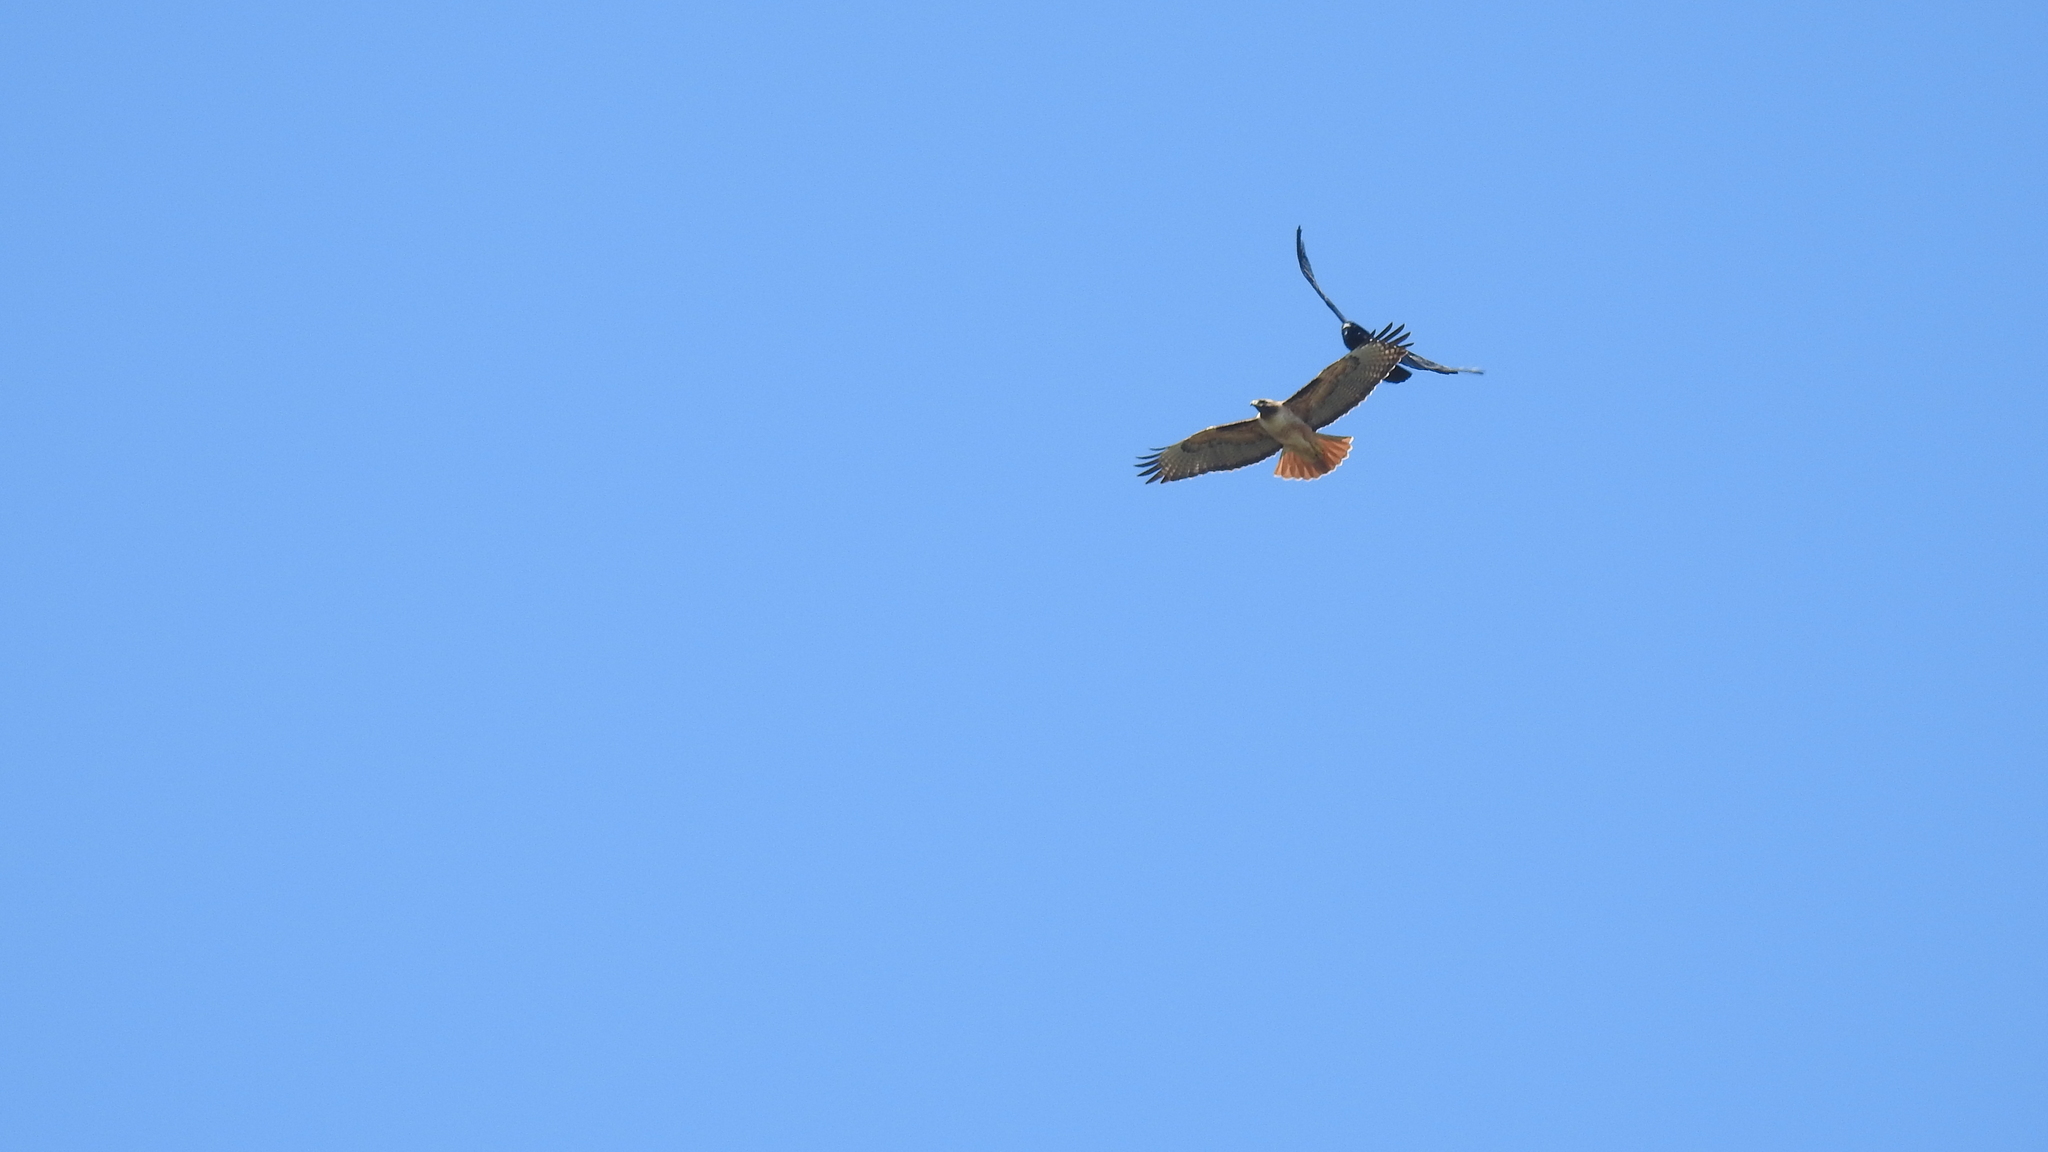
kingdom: Animalia
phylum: Chordata
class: Aves
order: Passeriformes
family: Corvidae
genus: Corvus
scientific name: Corvus brachyrhynchos
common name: American crow
